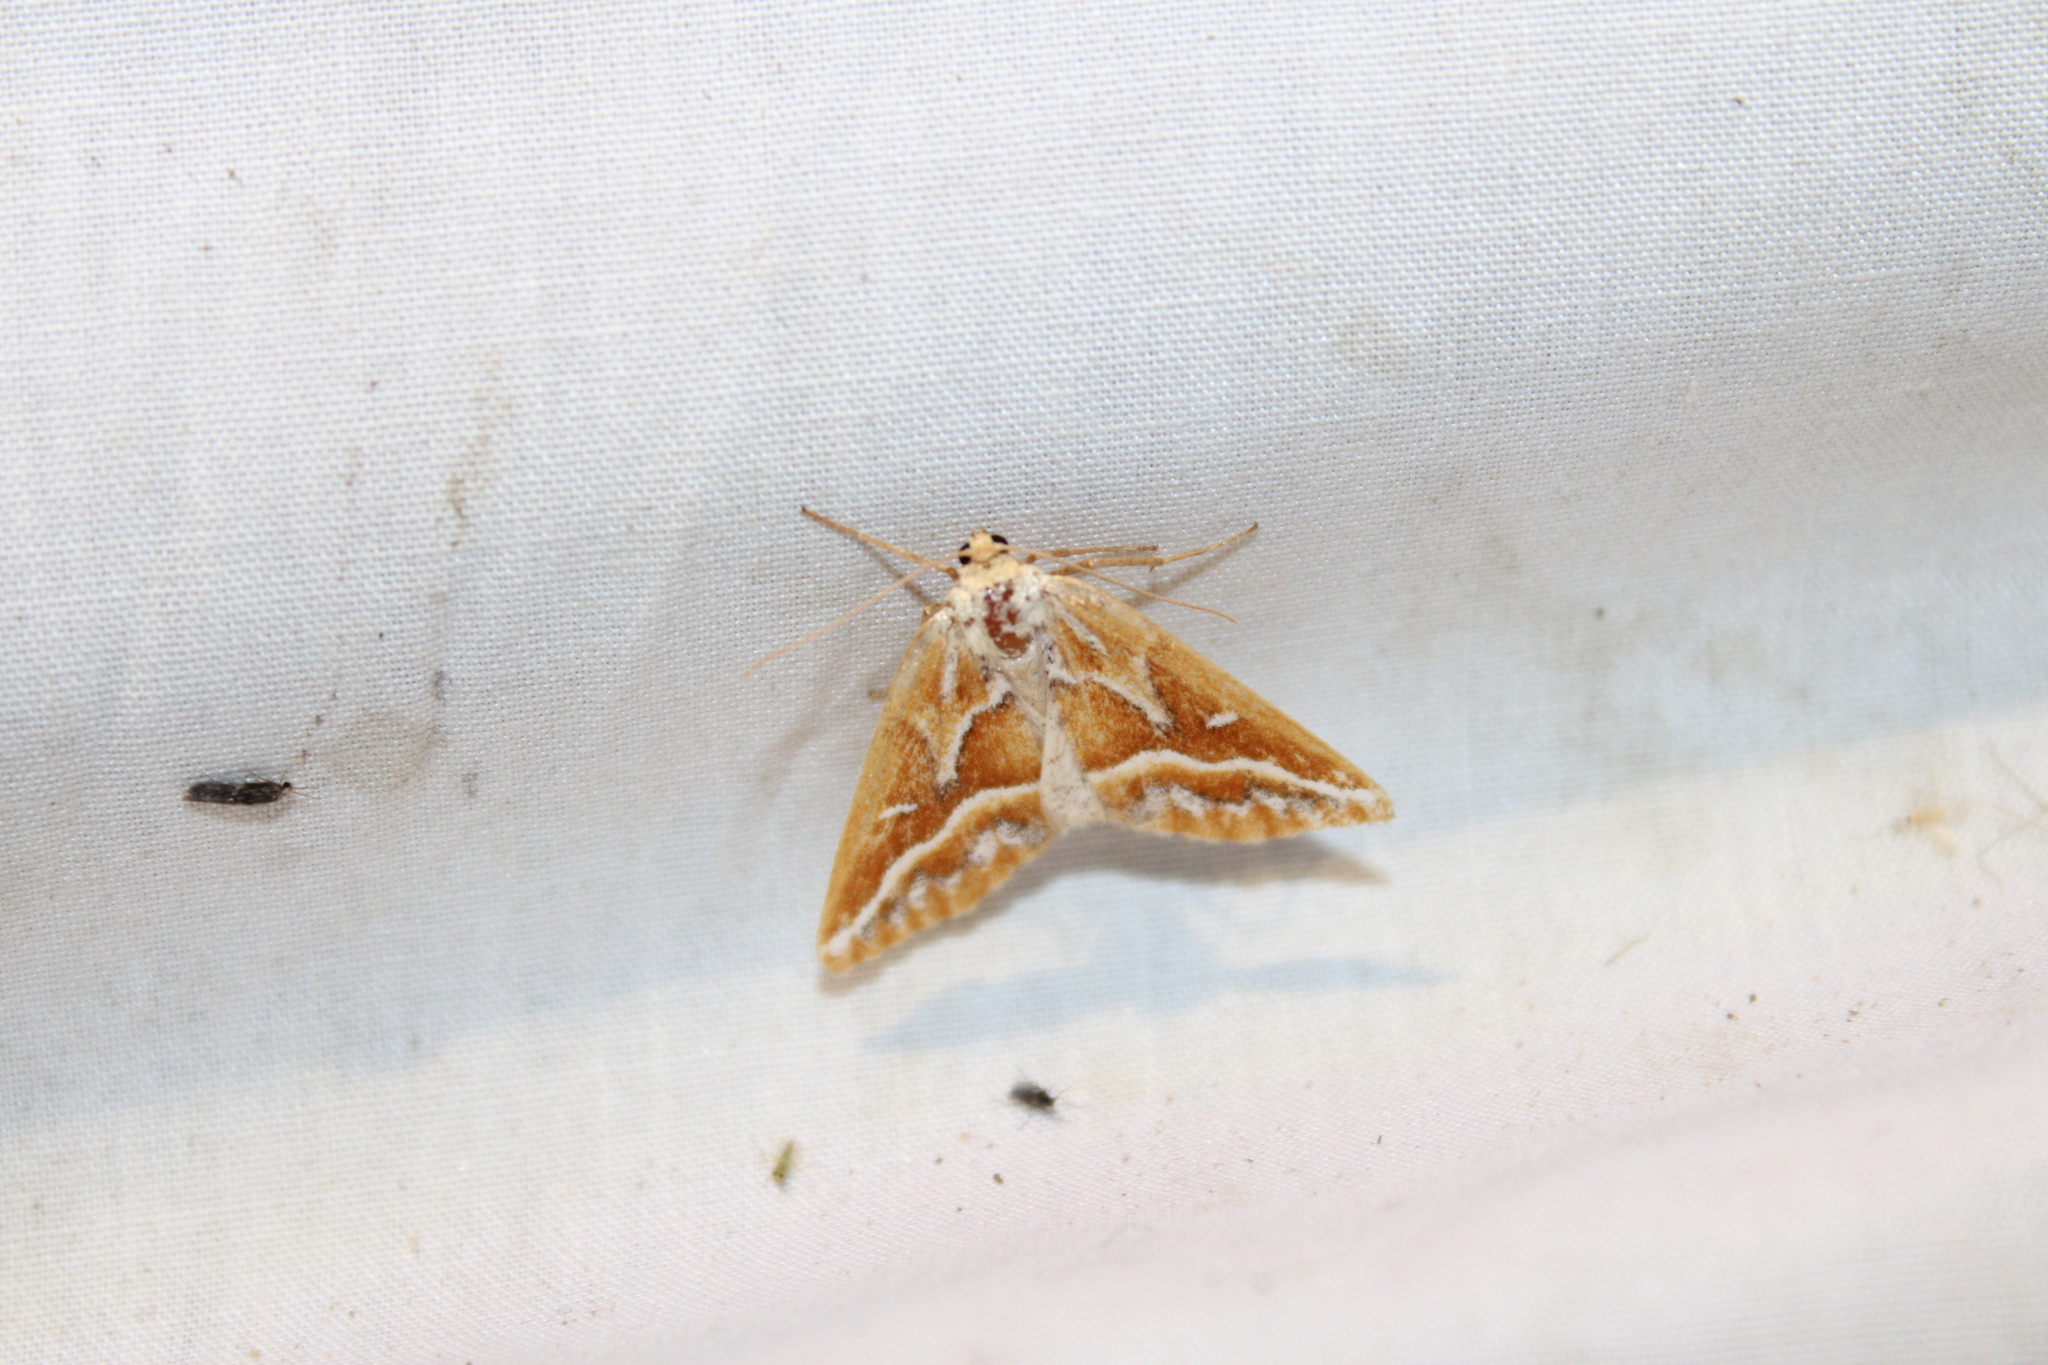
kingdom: Animalia
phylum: Arthropoda
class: Insecta
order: Lepidoptera
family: Geometridae
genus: Caripeta
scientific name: Caripeta angustiorata
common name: Brown pine looper
